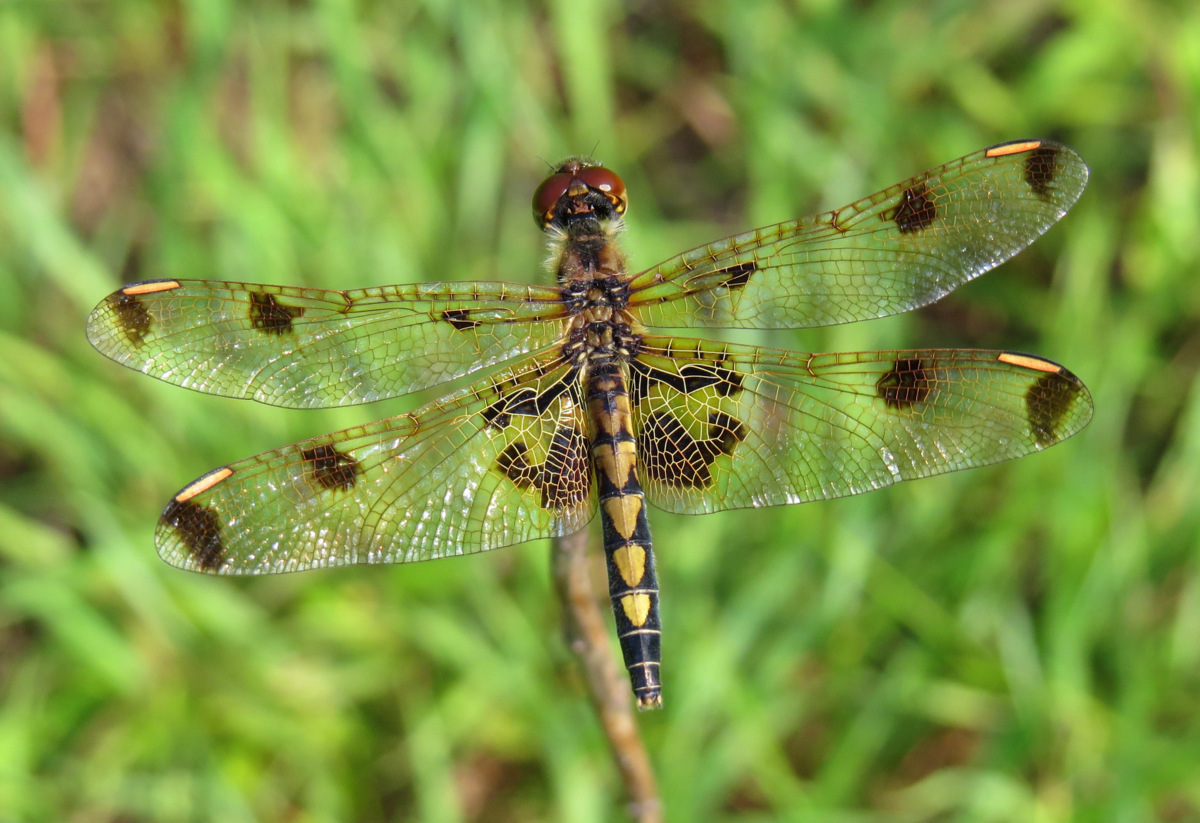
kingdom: Animalia
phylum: Arthropoda
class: Insecta
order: Odonata
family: Libellulidae
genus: Celithemis
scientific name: Celithemis elisa
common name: Calico pennant
